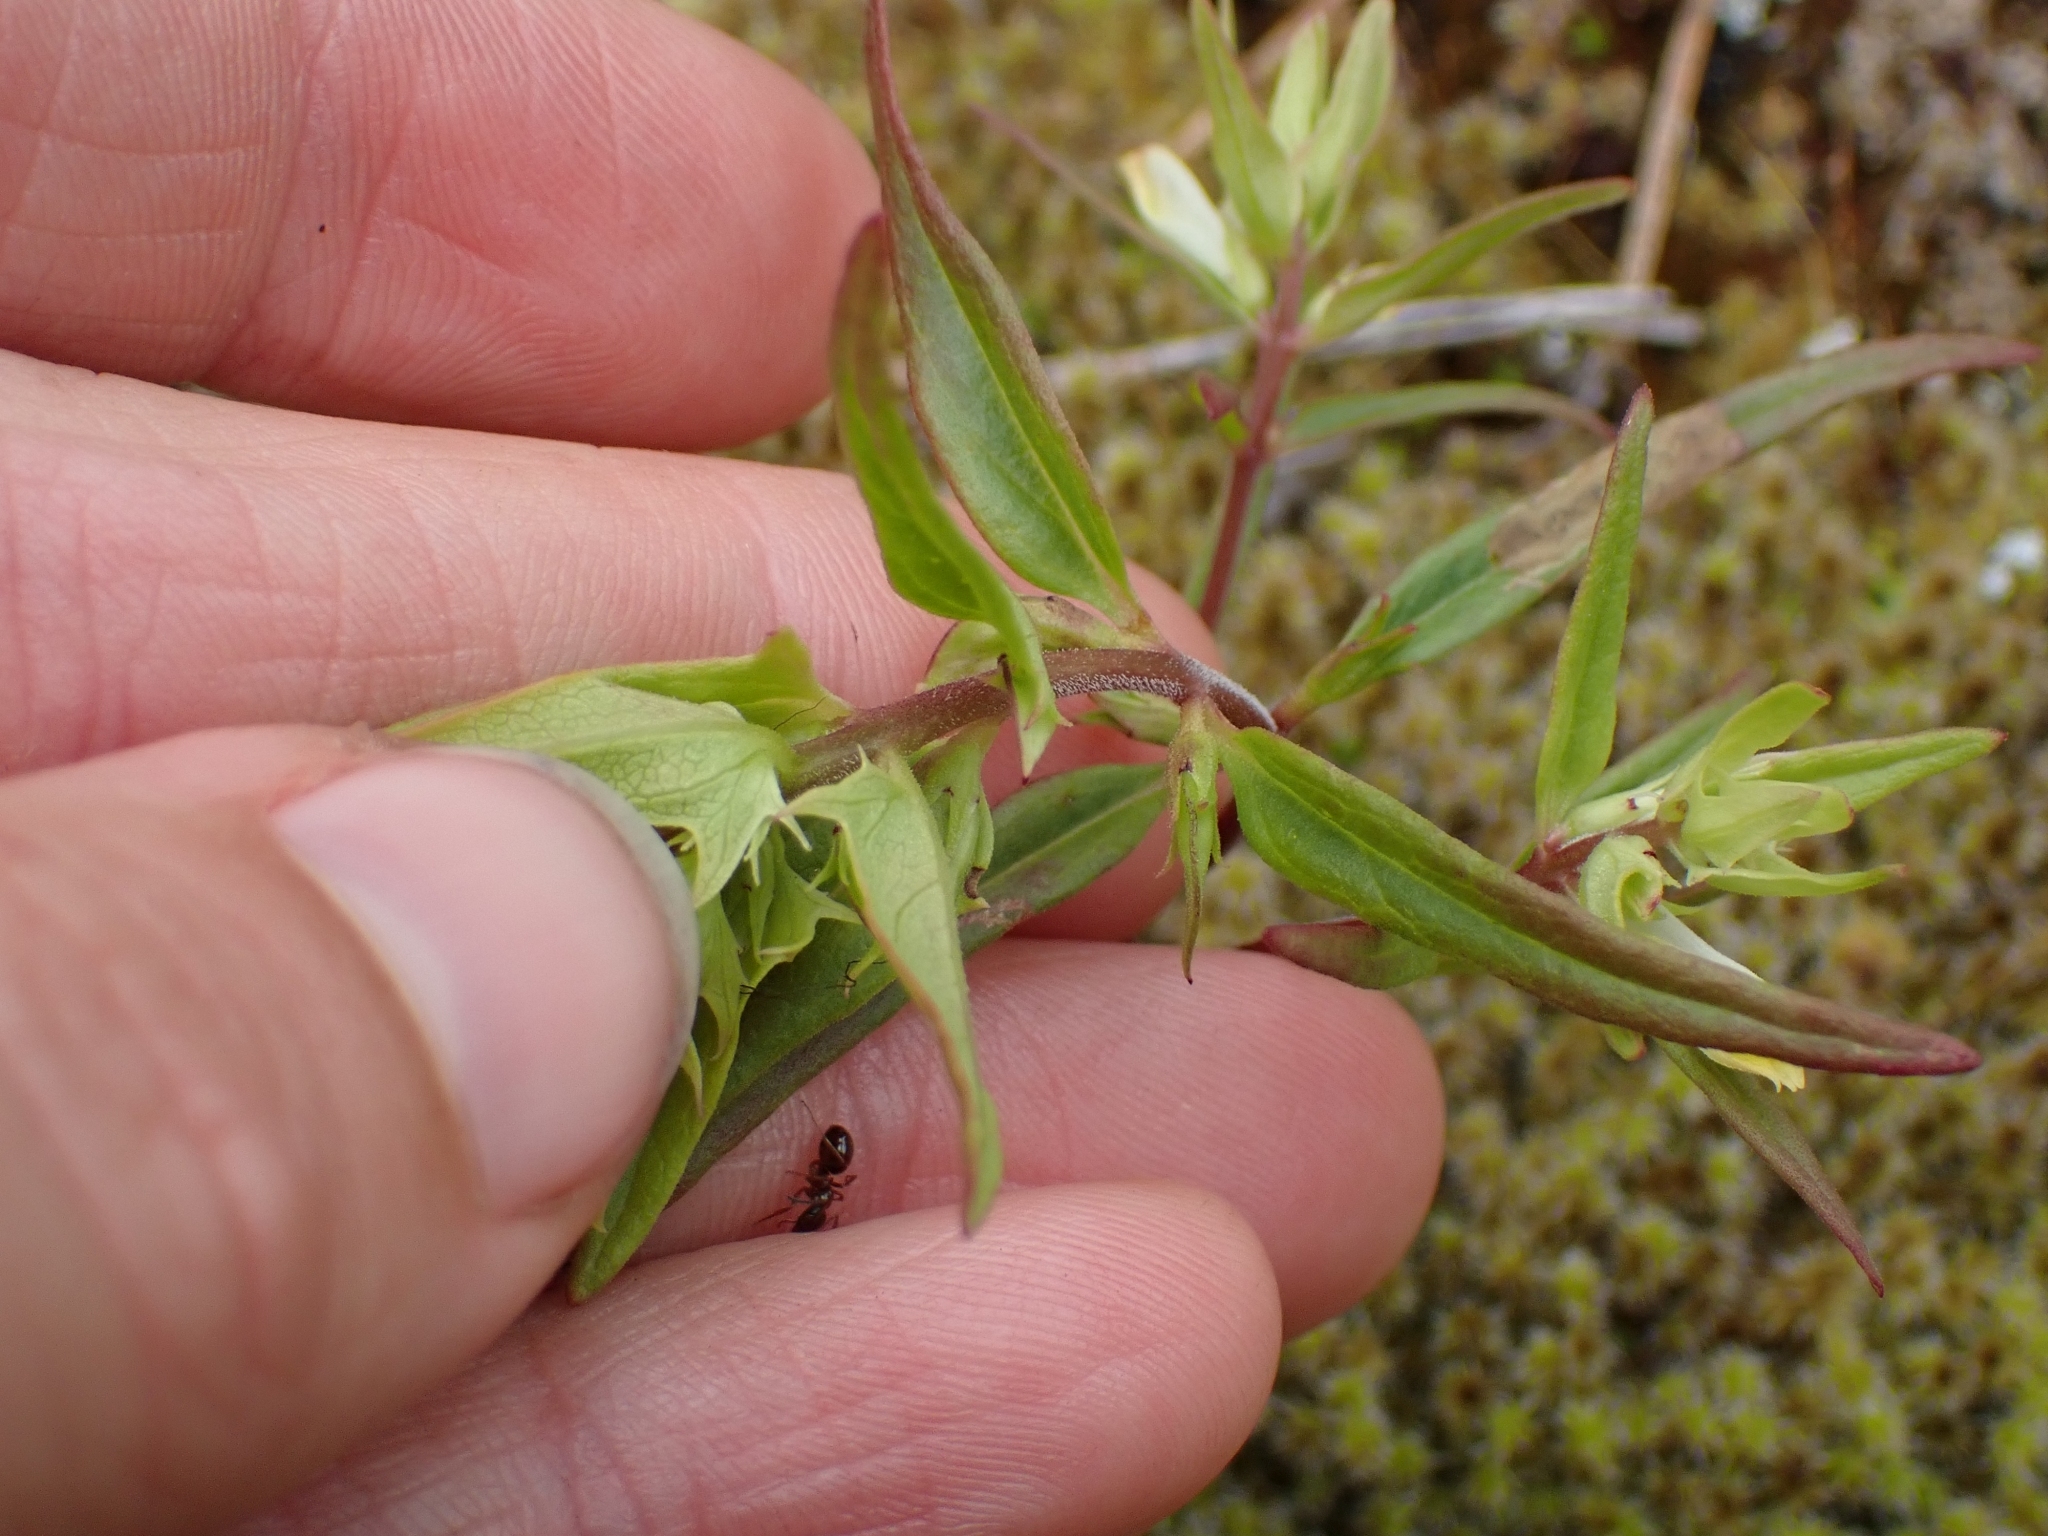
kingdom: Plantae
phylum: Tracheophyta
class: Magnoliopsida
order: Lamiales
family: Orobanchaceae
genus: Melampyrum
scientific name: Melampyrum lineare
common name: American cow-wheat
